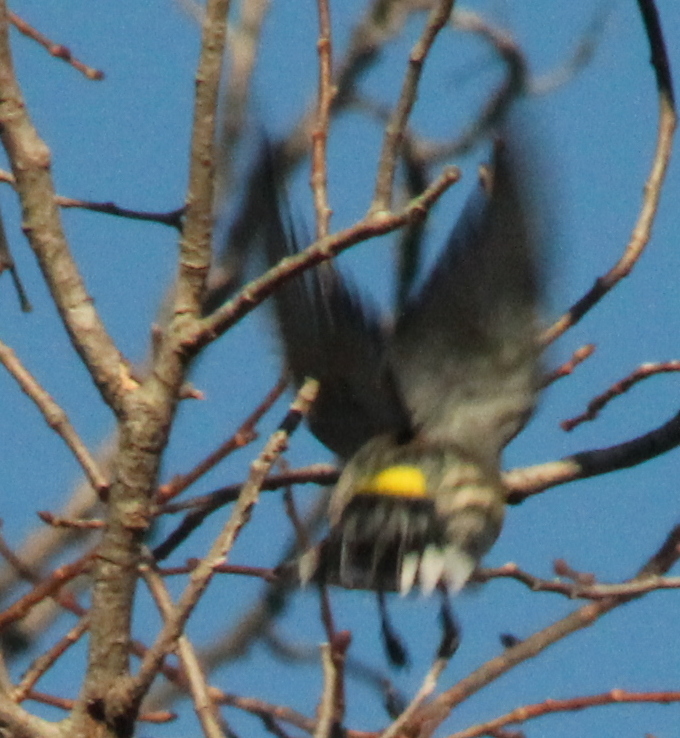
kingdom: Animalia
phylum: Chordata
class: Aves
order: Passeriformes
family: Parulidae
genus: Setophaga
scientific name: Setophaga coronata
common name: Myrtle warbler
